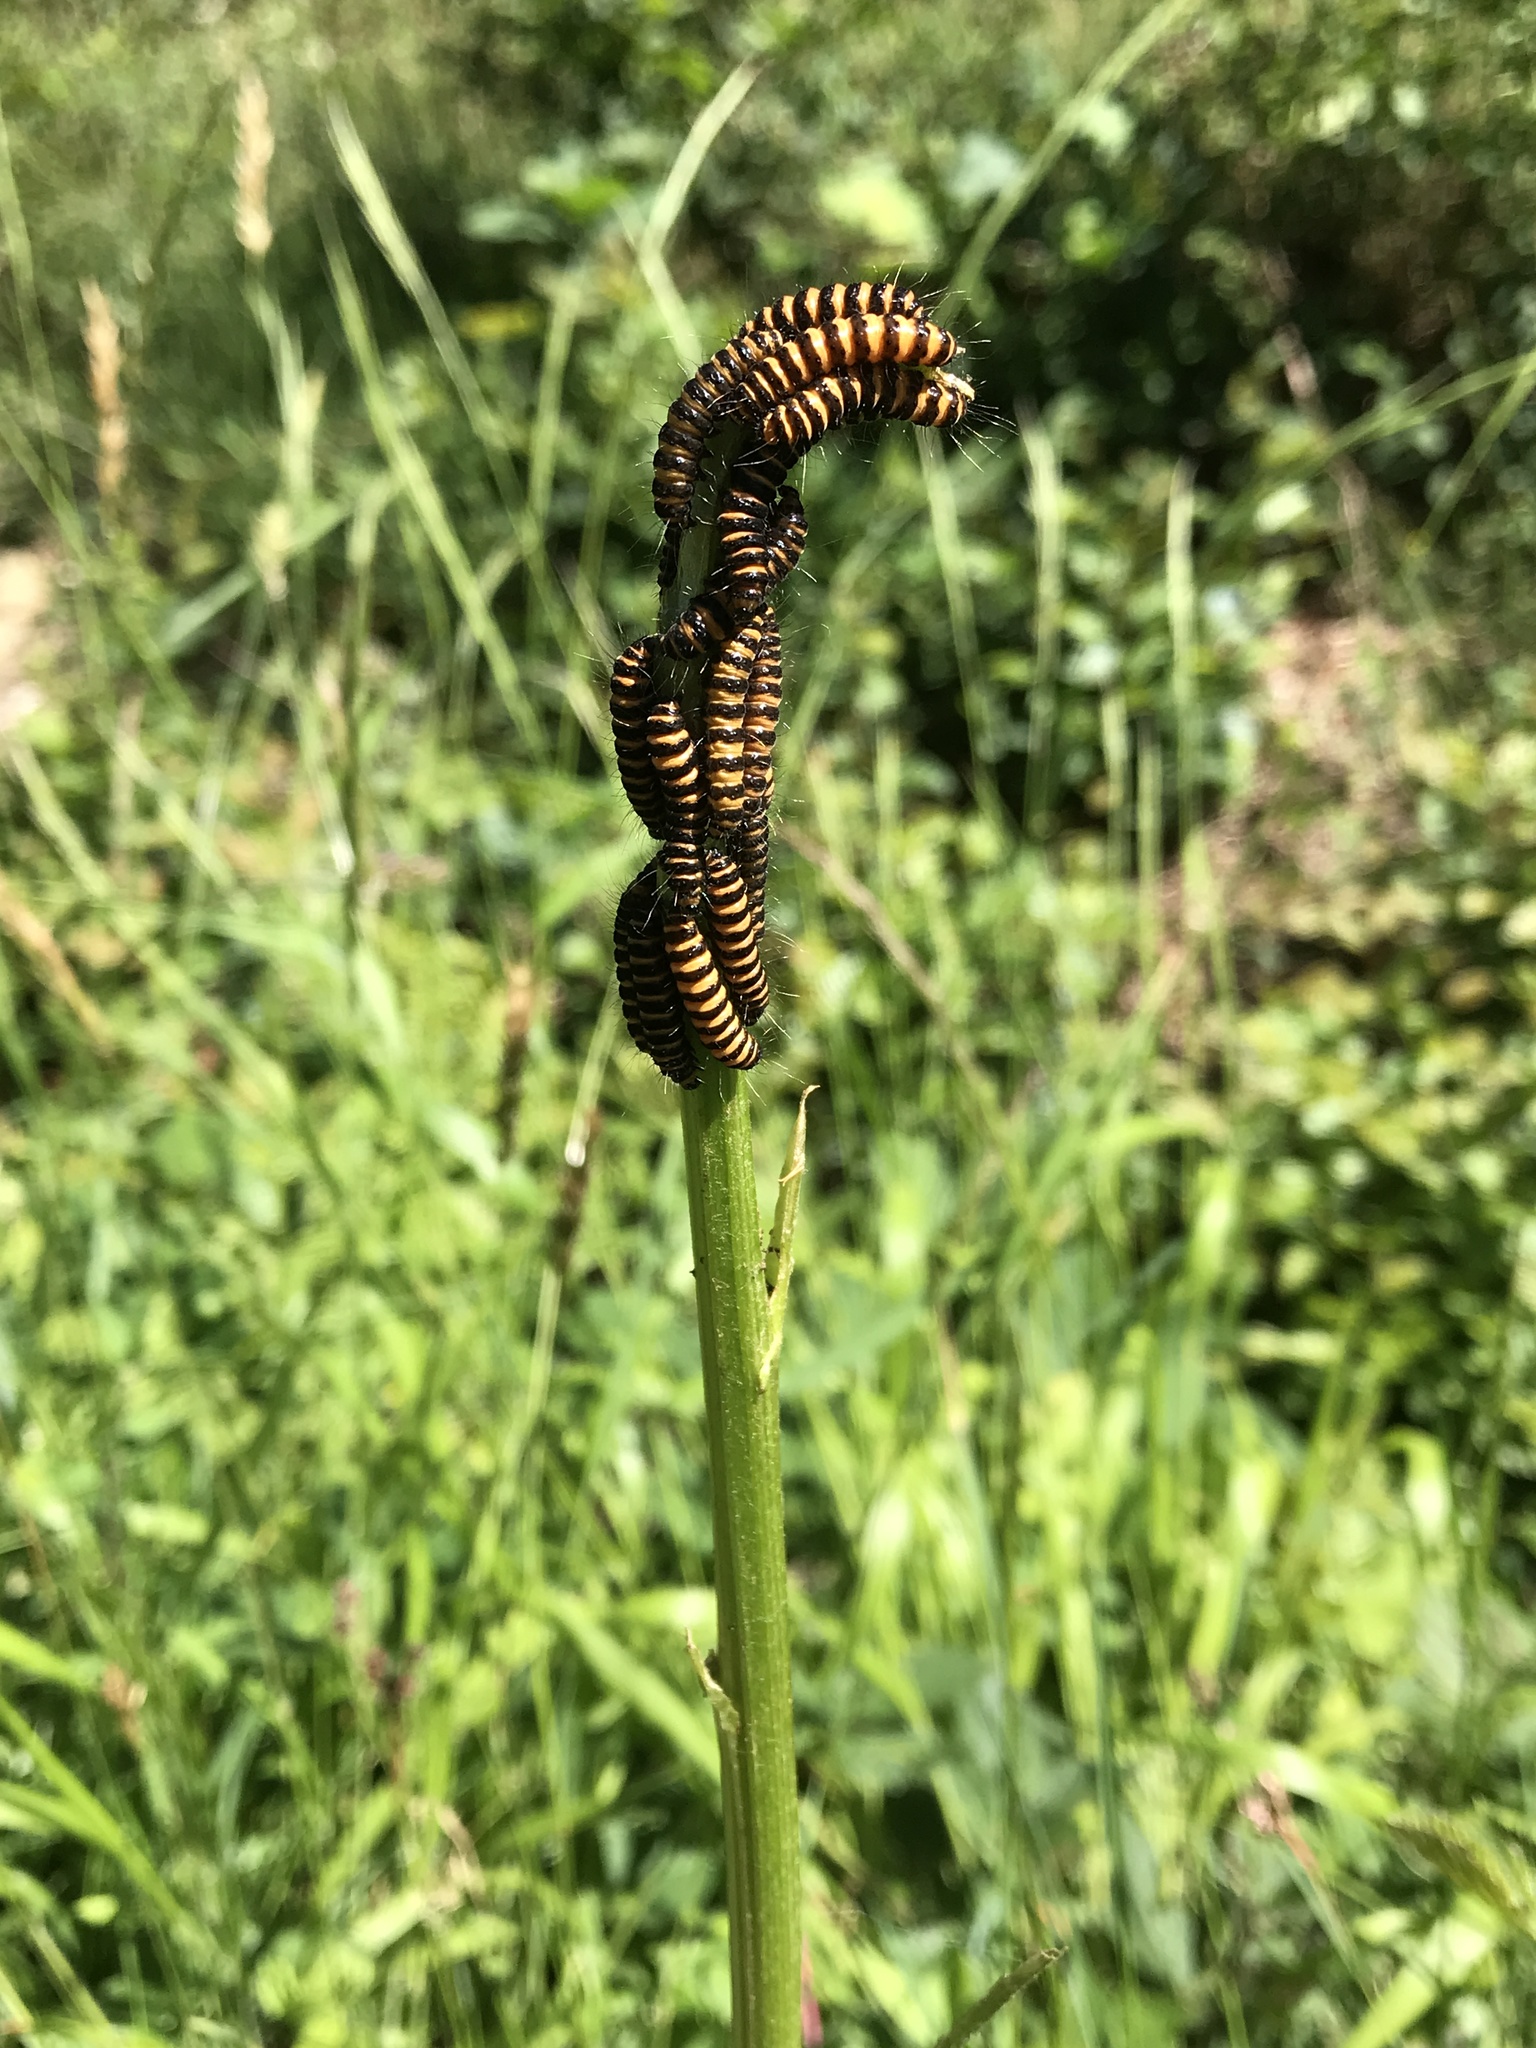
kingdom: Animalia
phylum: Arthropoda
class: Insecta
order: Lepidoptera
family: Erebidae
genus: Tyria
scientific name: Tyria jacobaeae
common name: Cinnabar
